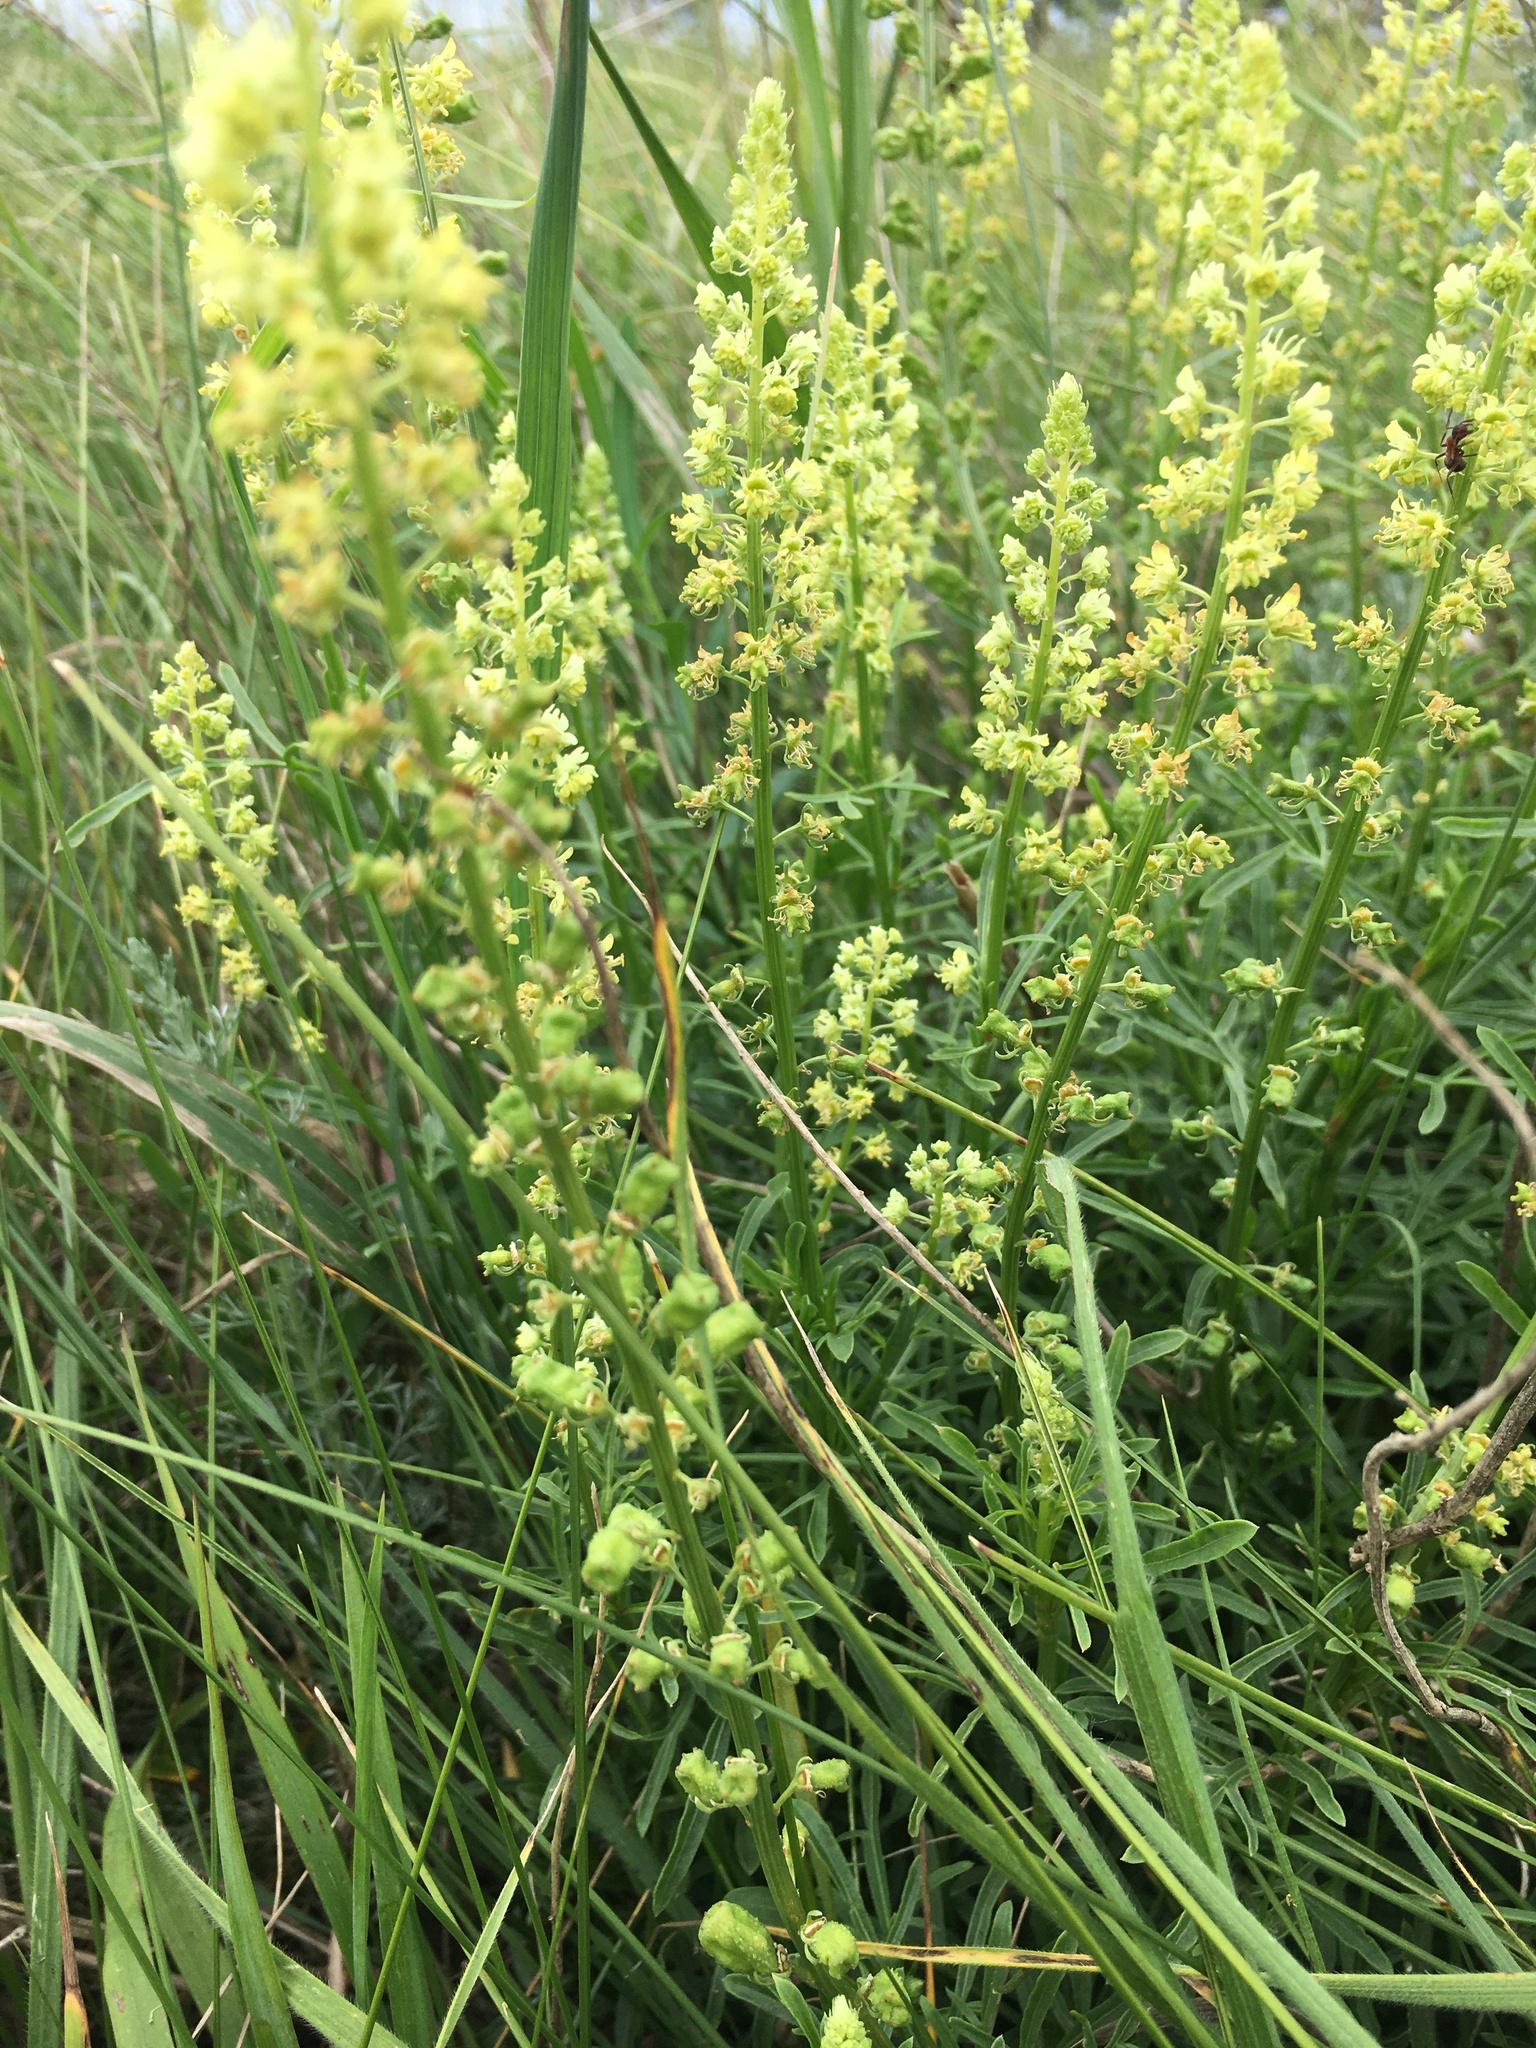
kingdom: Plantae
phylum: Tracheophyta
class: Magnoliopsida
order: Brassicales
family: Resedaceae
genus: Reseda
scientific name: Reseda lutea
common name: Wild mignonette
